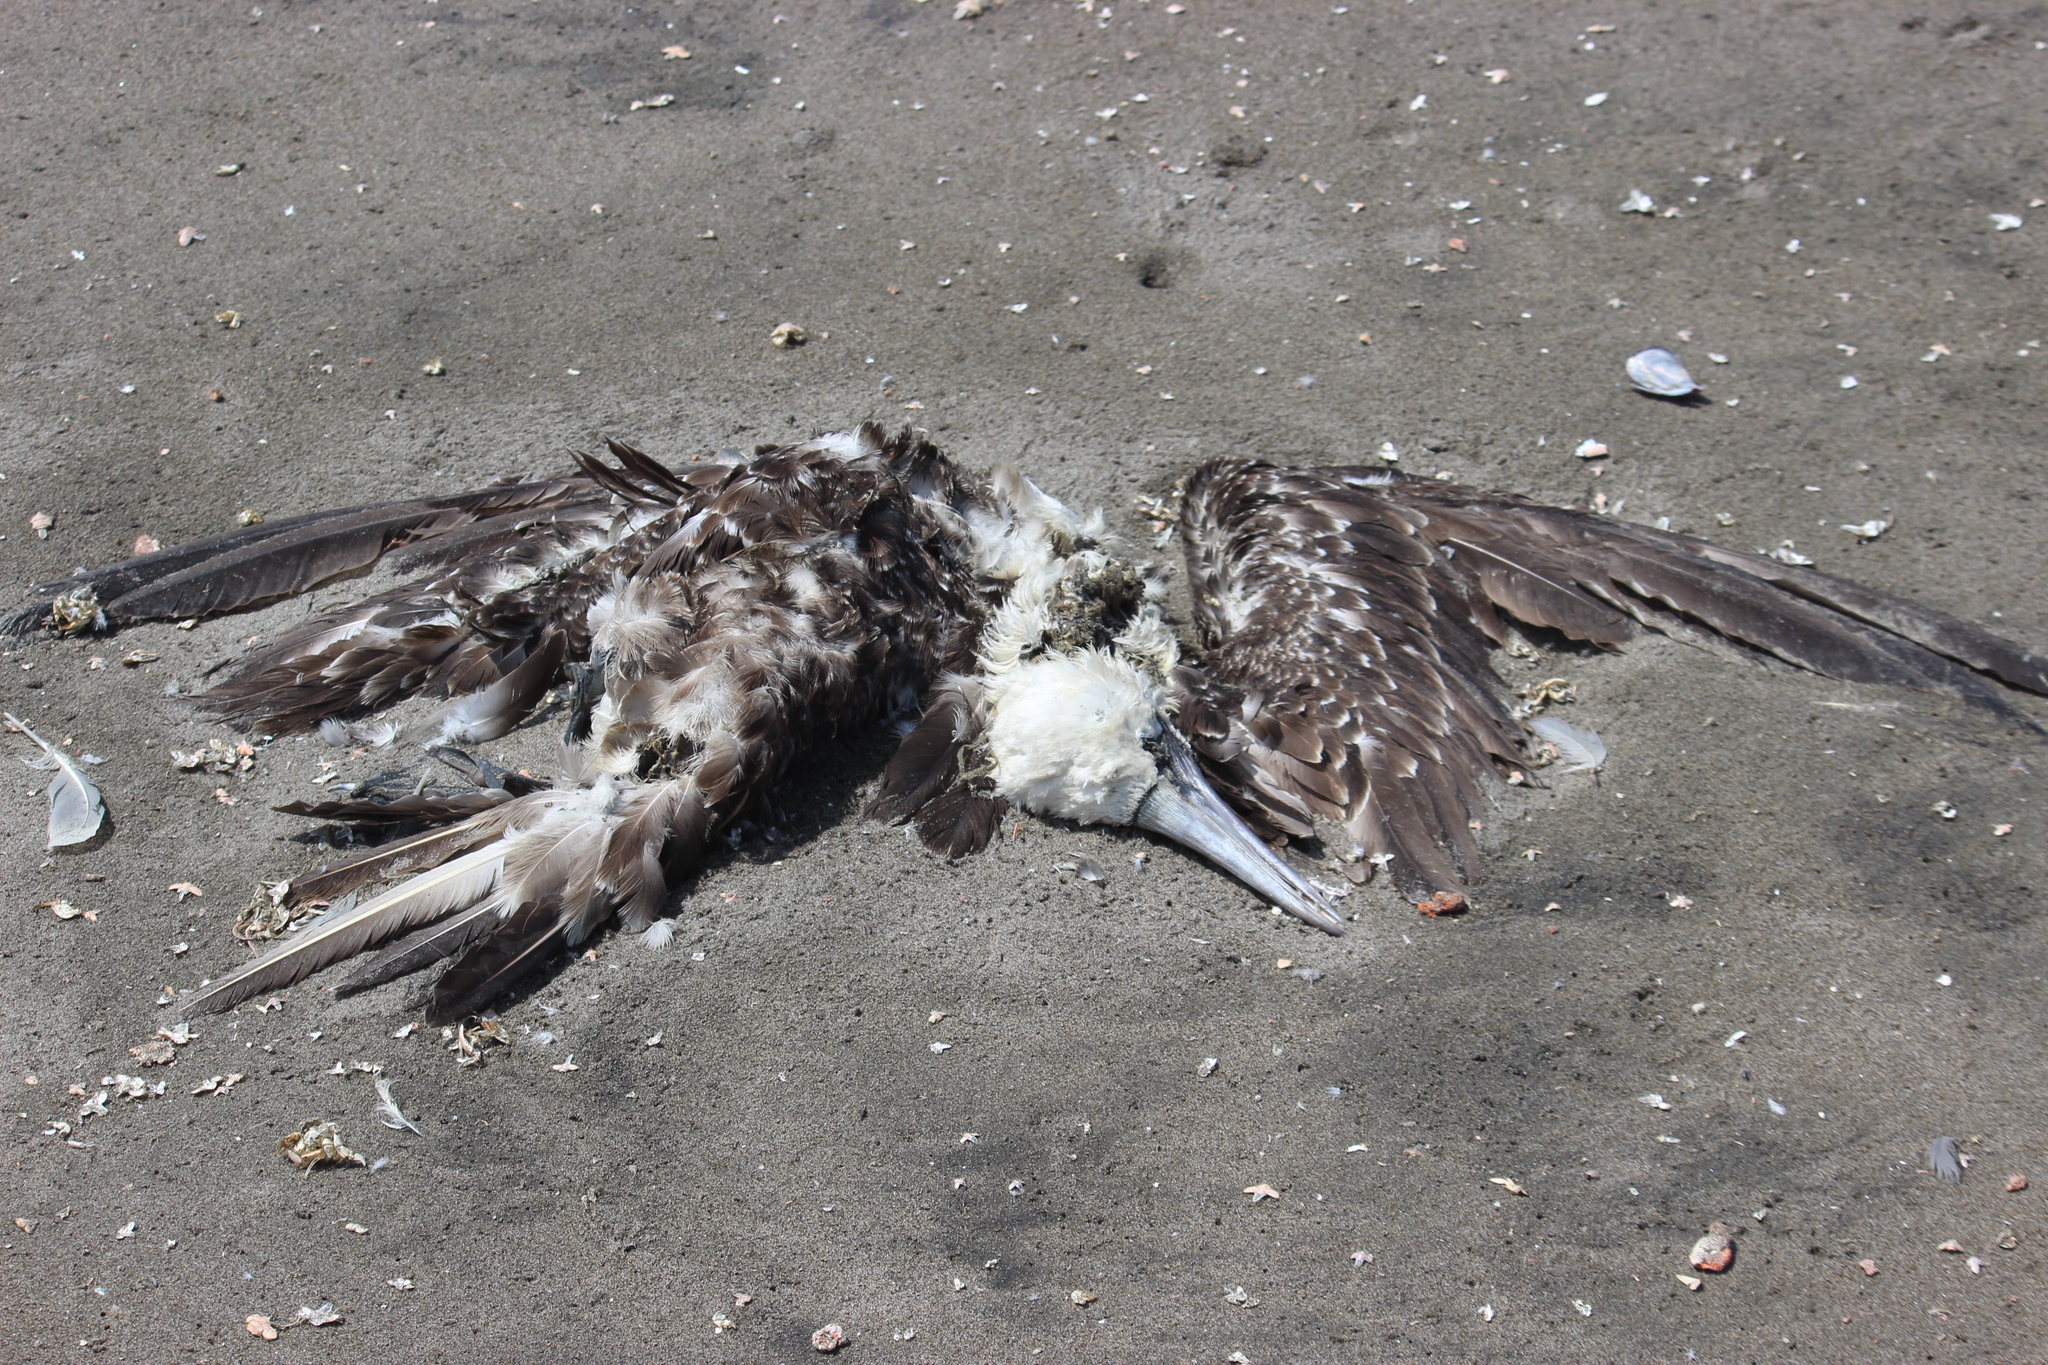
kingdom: Animalia
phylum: Chordata
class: Aves
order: Suliformes
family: Sulidae
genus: Sula
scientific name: Sula variegata
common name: Peruvian booby
